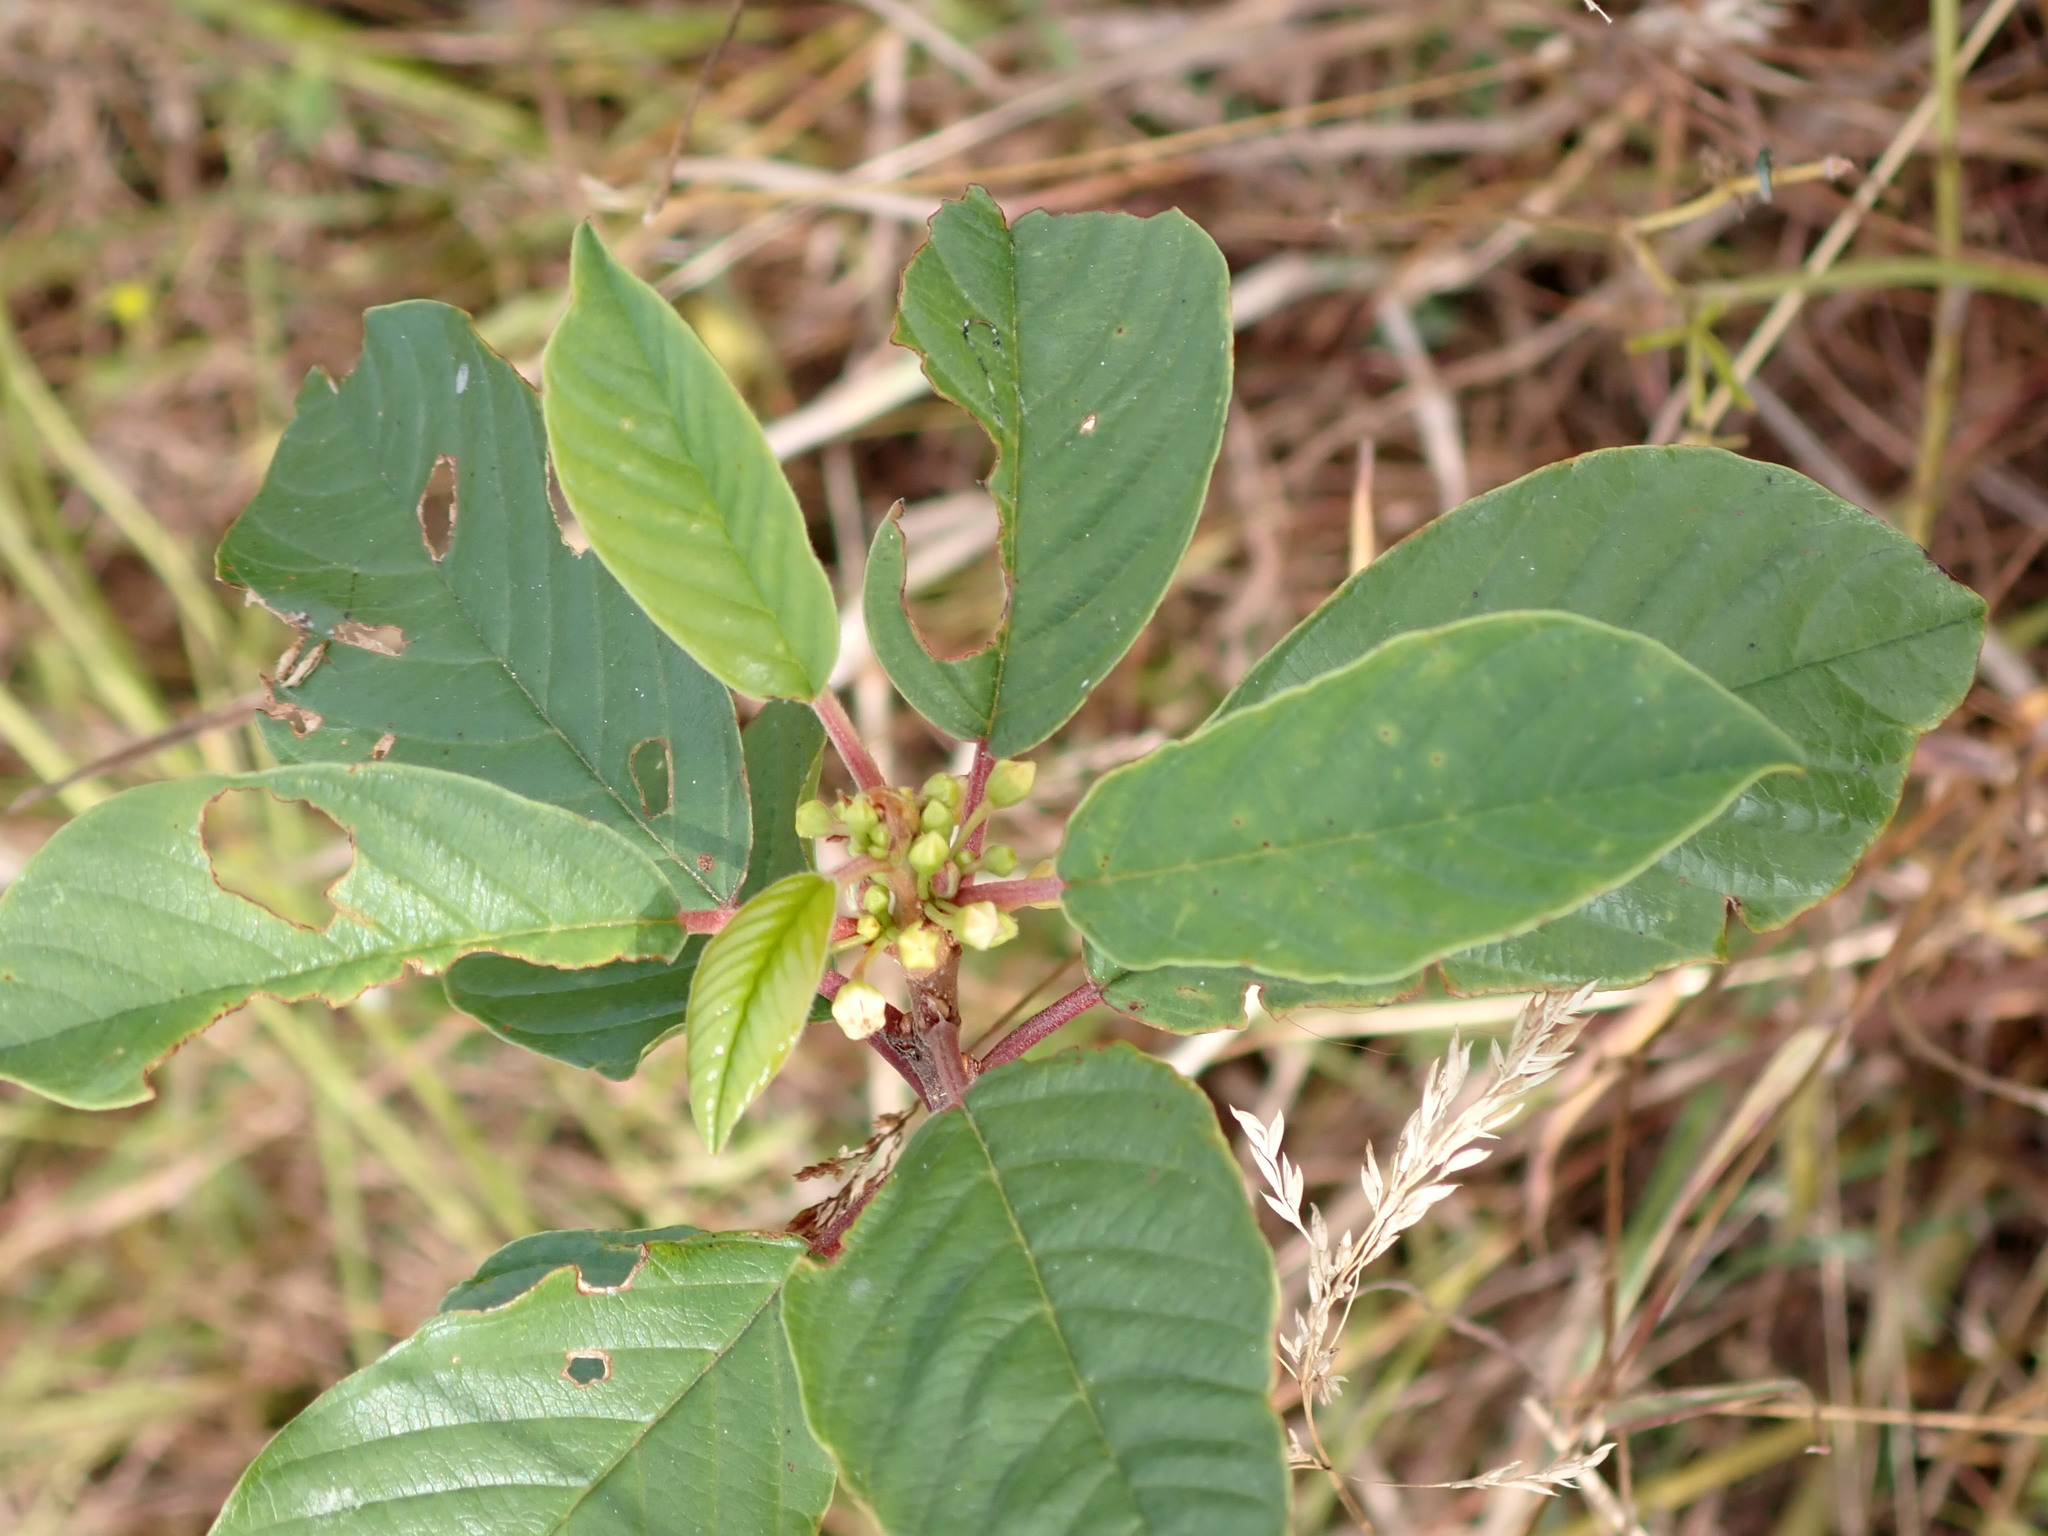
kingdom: Plantae
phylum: Tracheophyta
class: Magnoliopsida
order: Rosales
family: Rhamnaceae
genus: Frangula
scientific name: Frangula alnus
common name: Alder buckthorn
